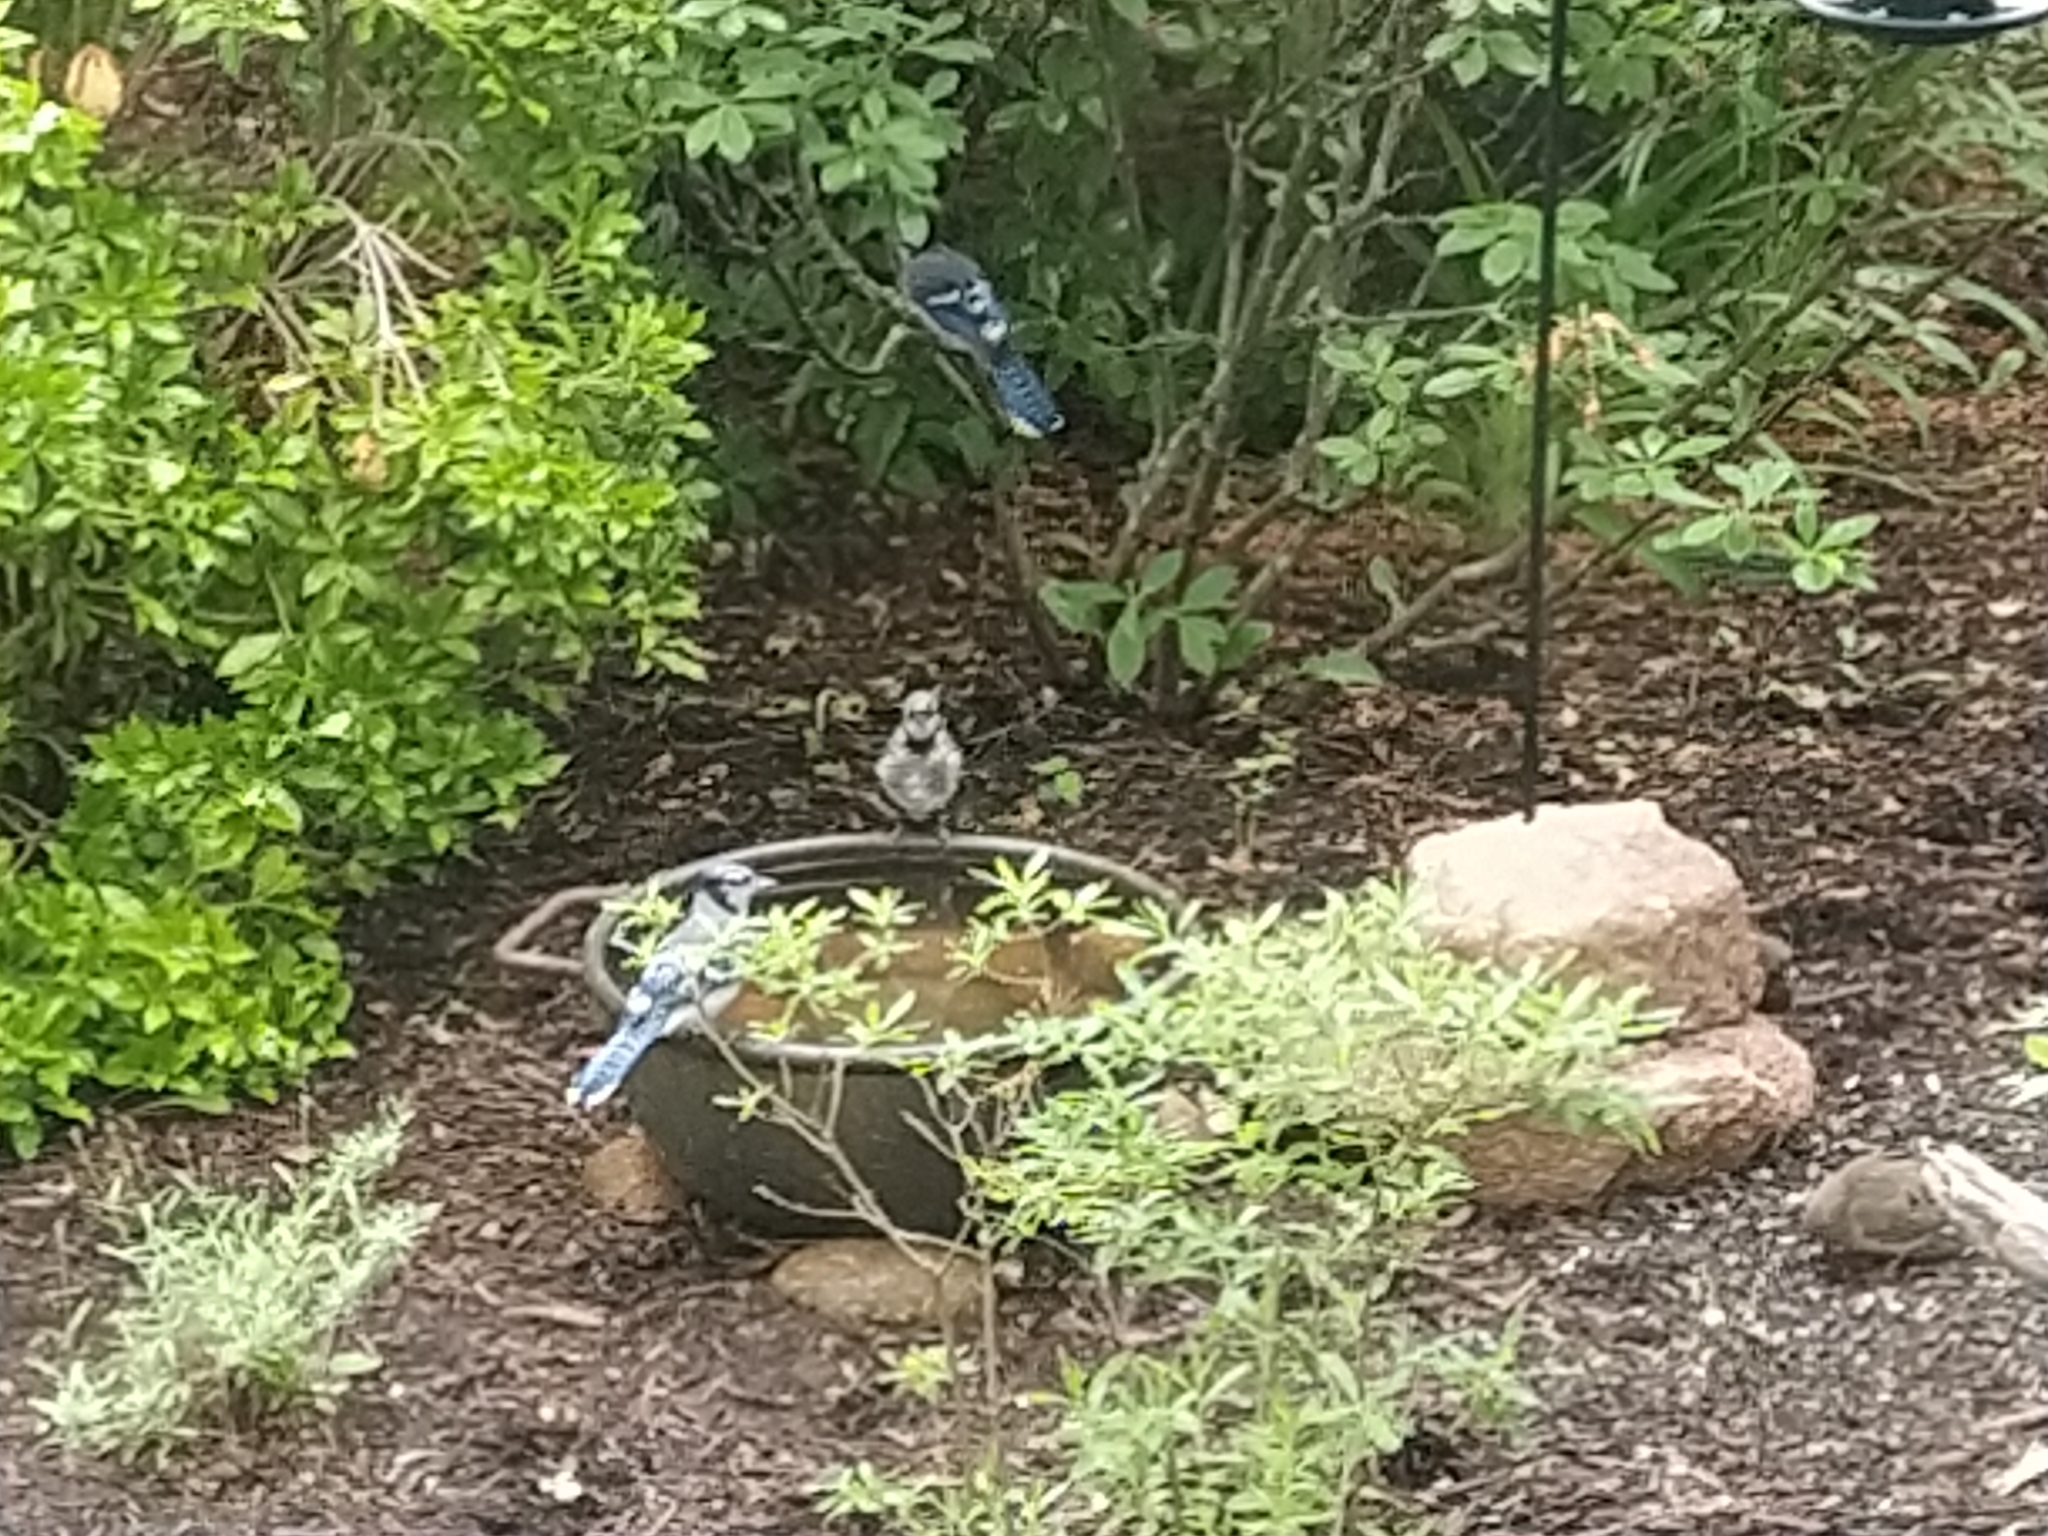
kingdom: Animalia
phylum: Chordata
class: Aves
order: Passeriformes
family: Corvidae
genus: Cyanocitta
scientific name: Cyanocitta cristata
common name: Blue jay
